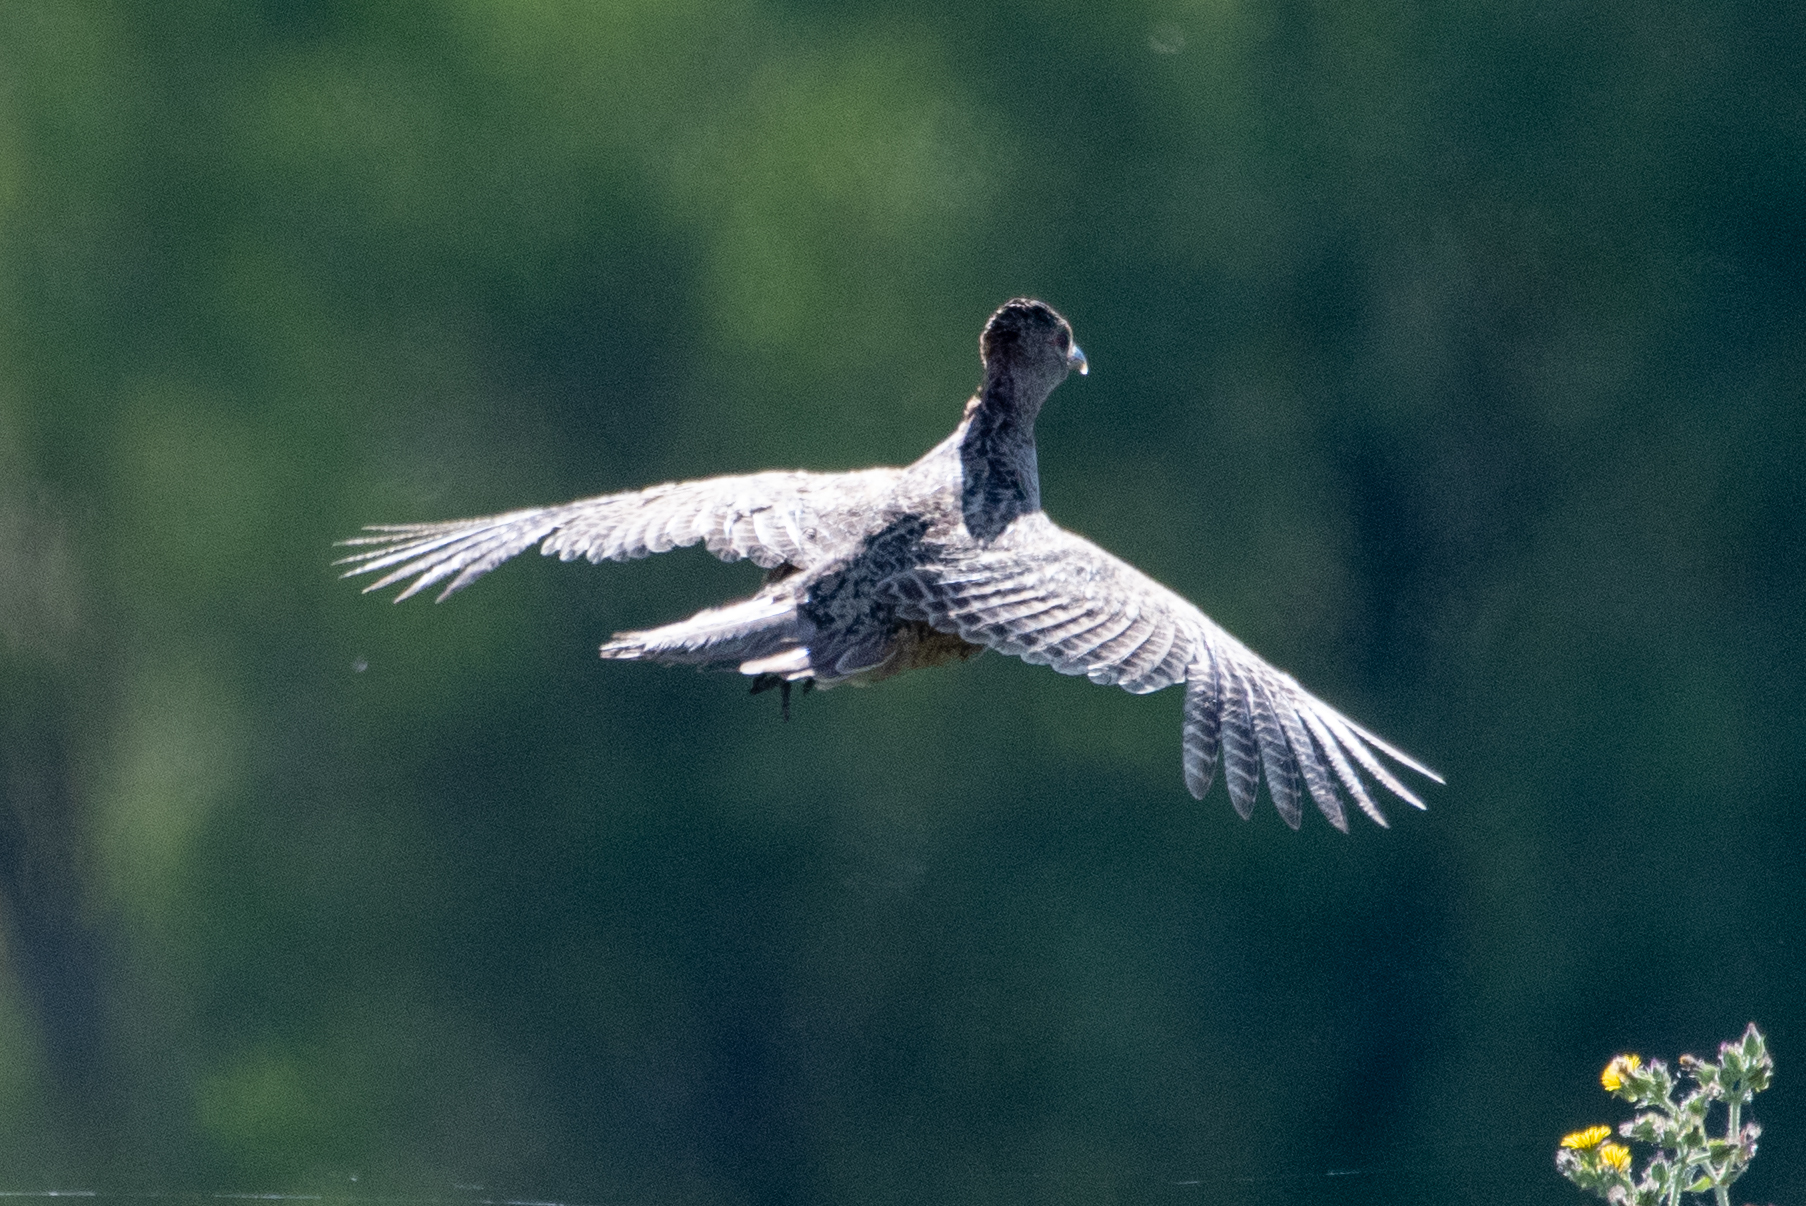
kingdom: Animalia
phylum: Chordata
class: Aves
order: Galliformes
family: Phasianidae
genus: Phasianus
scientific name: Phasianus colchicus
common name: Common pheasant
